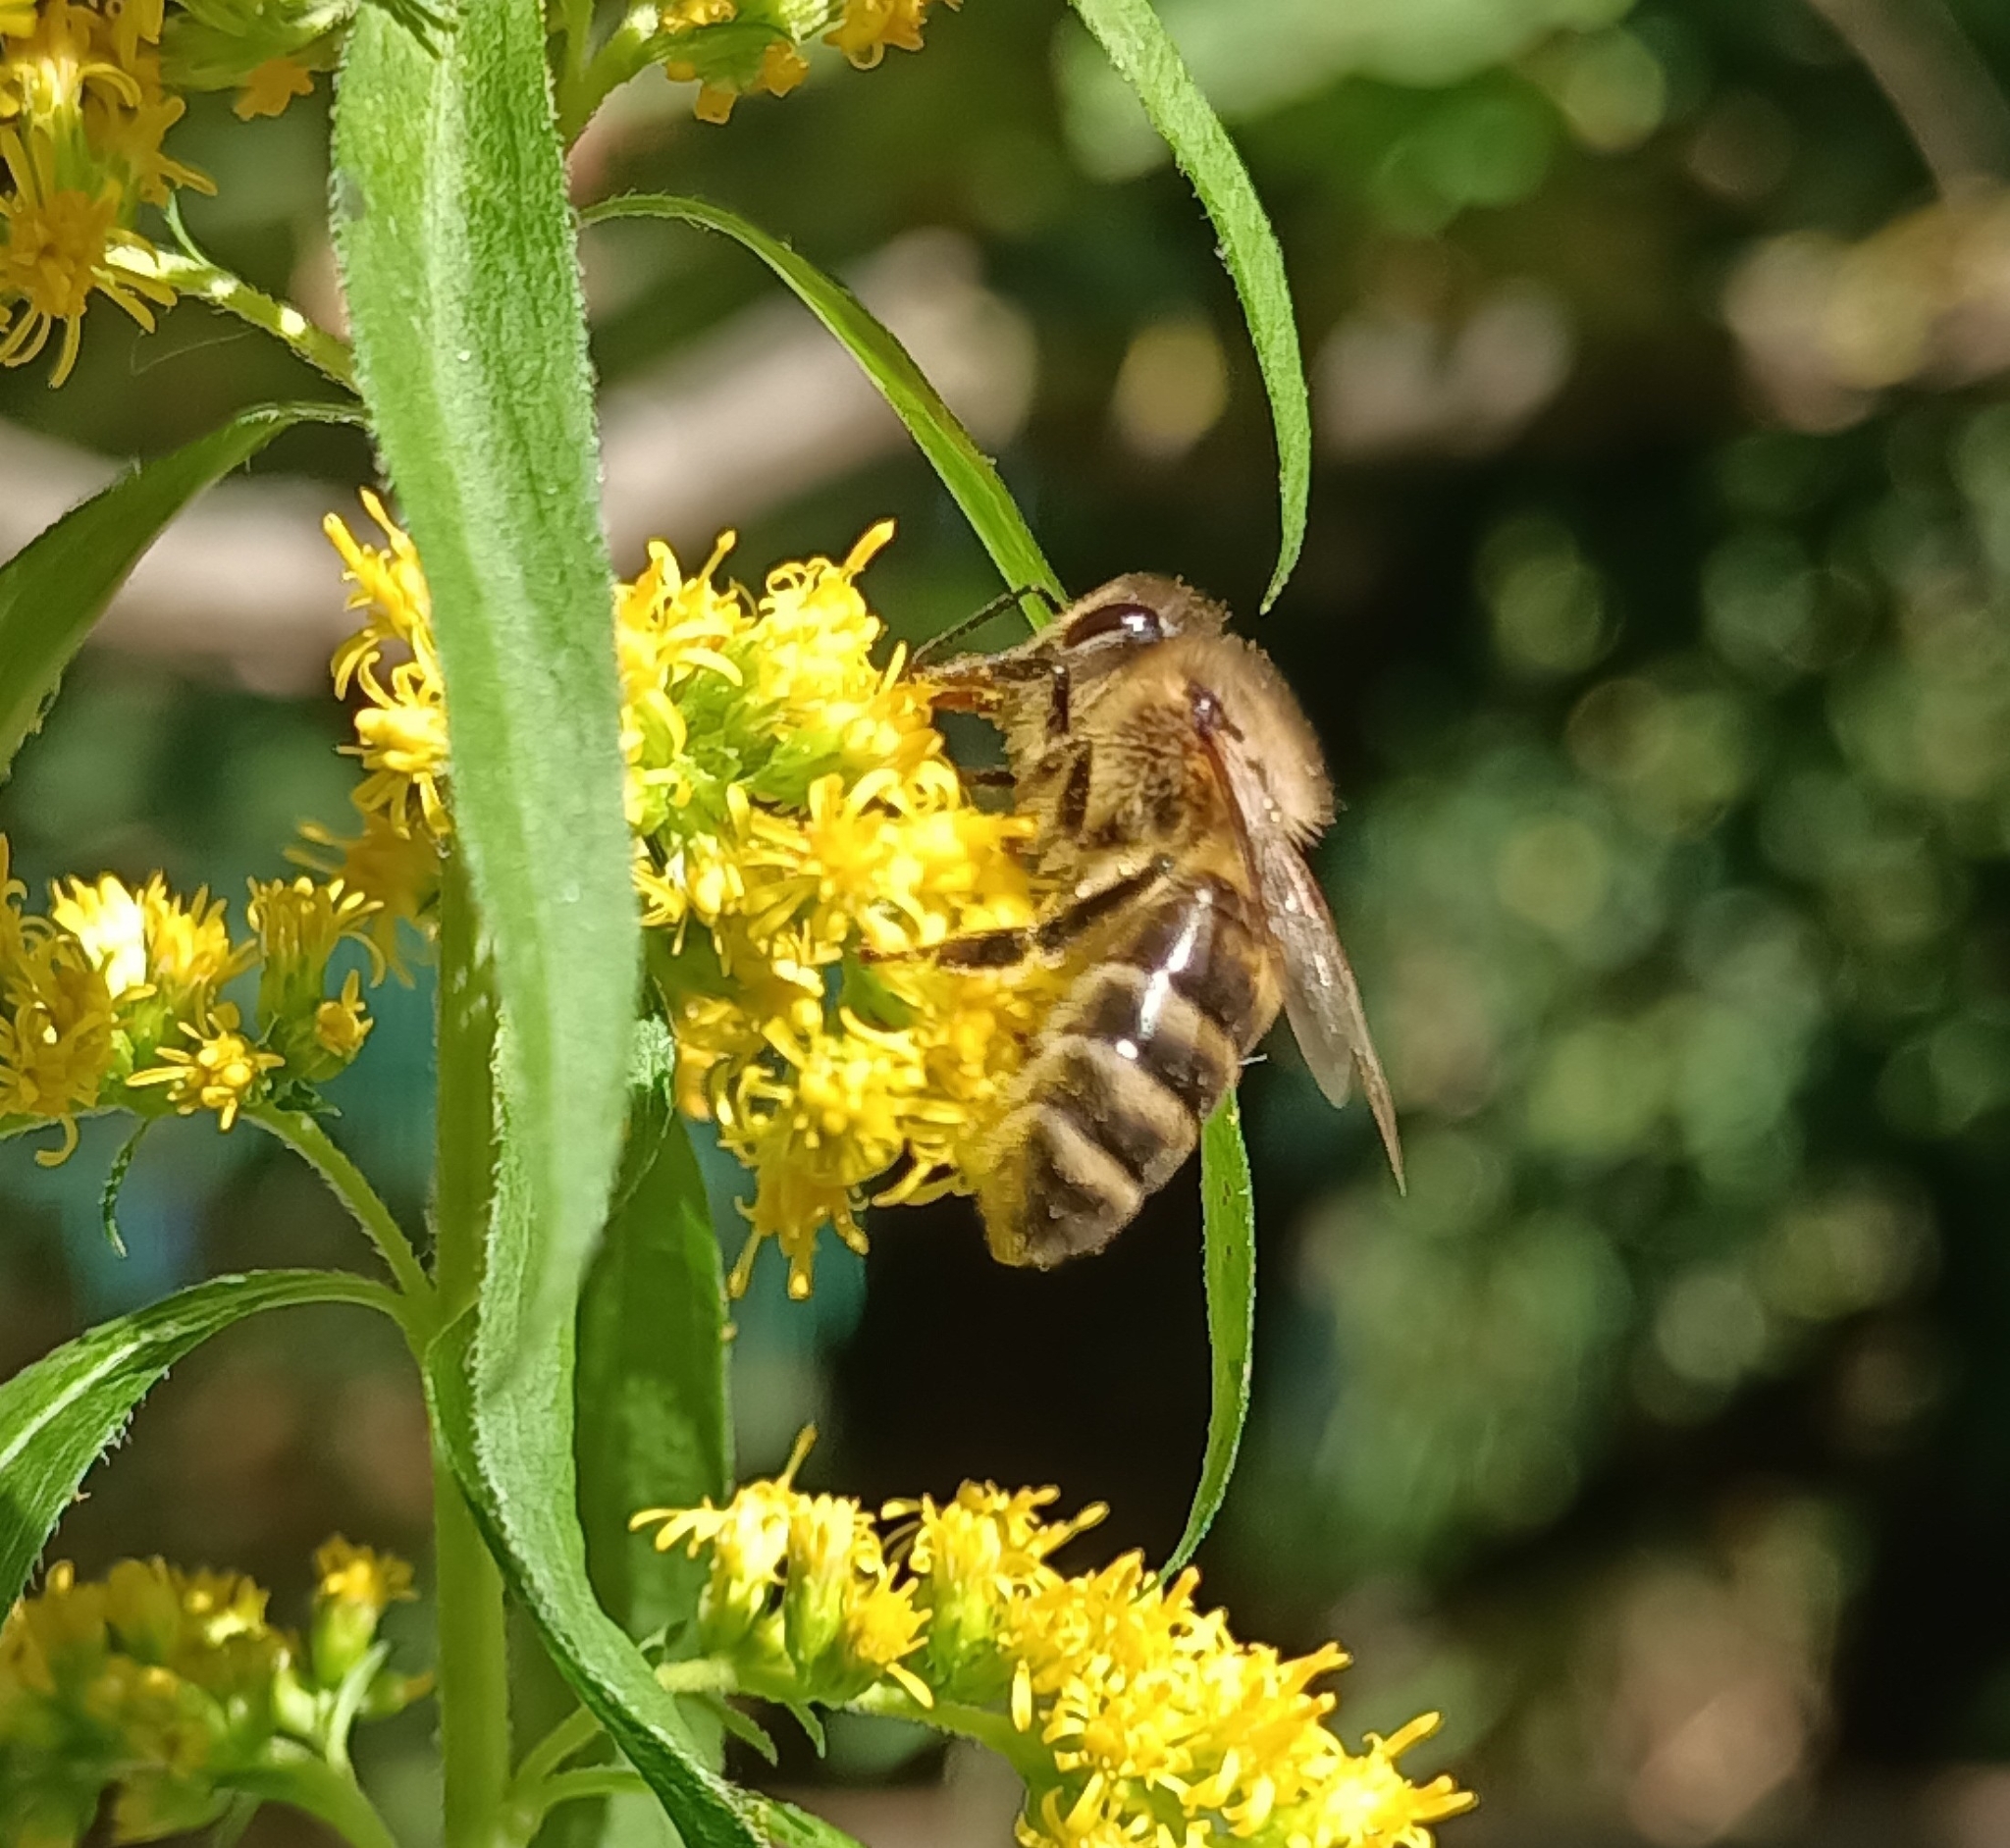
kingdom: Animalia
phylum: Arthropoda
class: Insecta
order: Hymenoptera
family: Apidae
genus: Apis
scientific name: Apis mellifera
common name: Honey bee
